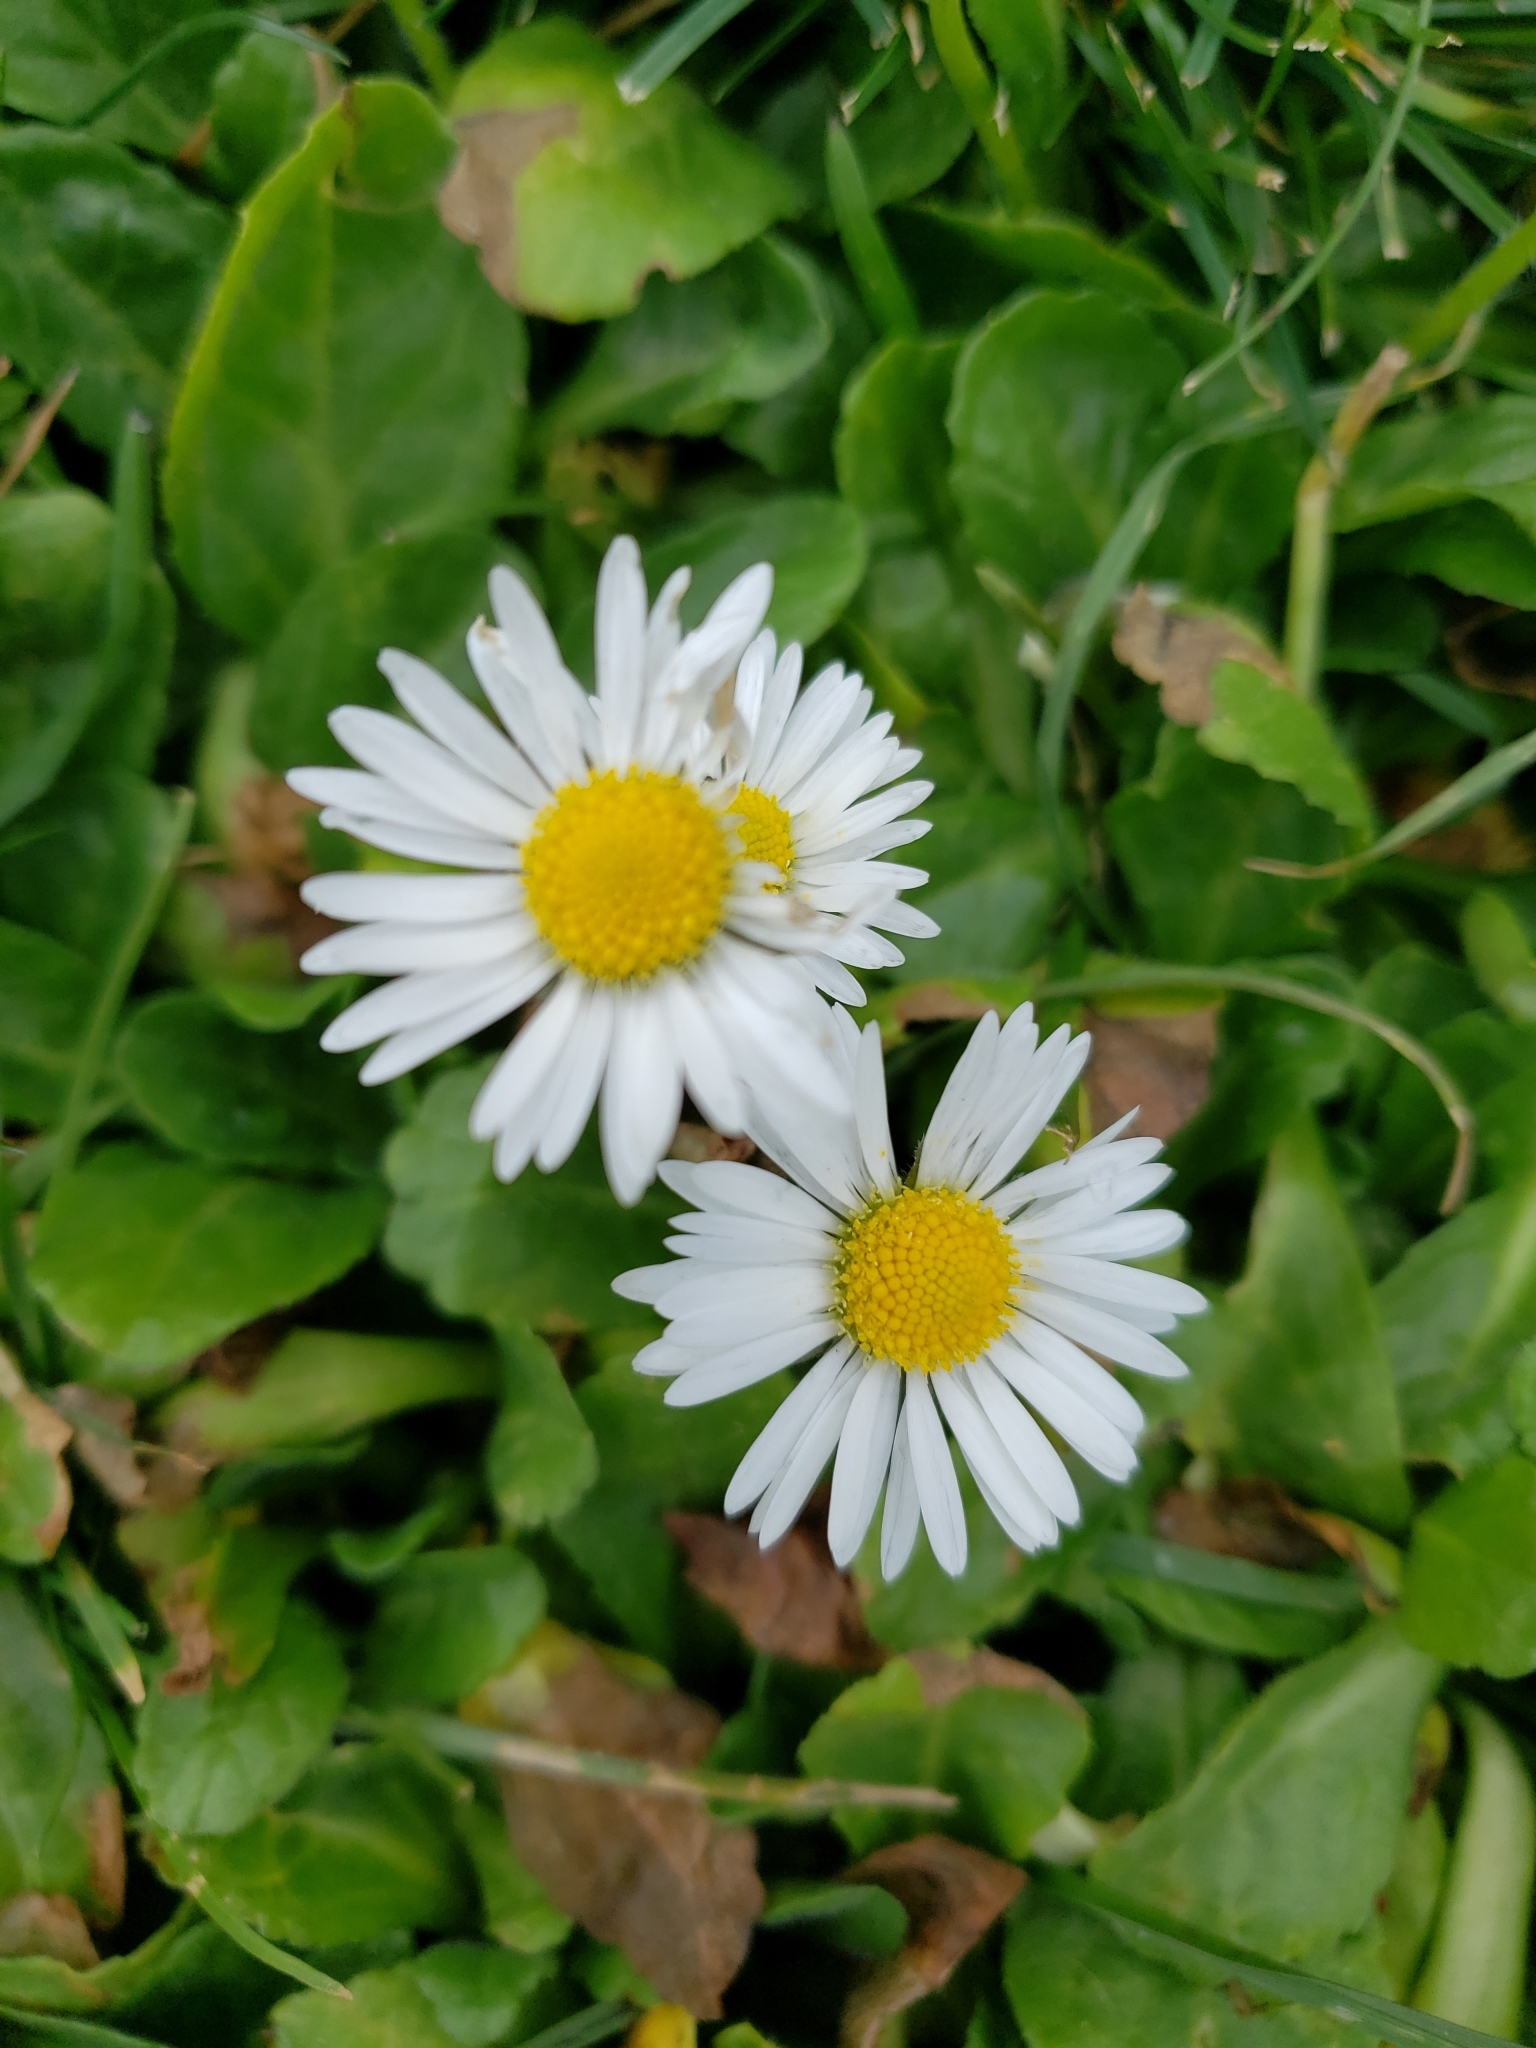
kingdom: Plantae
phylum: Tracheophyta
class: Magnoliopsida
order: Asterales
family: Asteraceae
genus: Bellis
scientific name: Bellis perennis
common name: Lawndaisy
